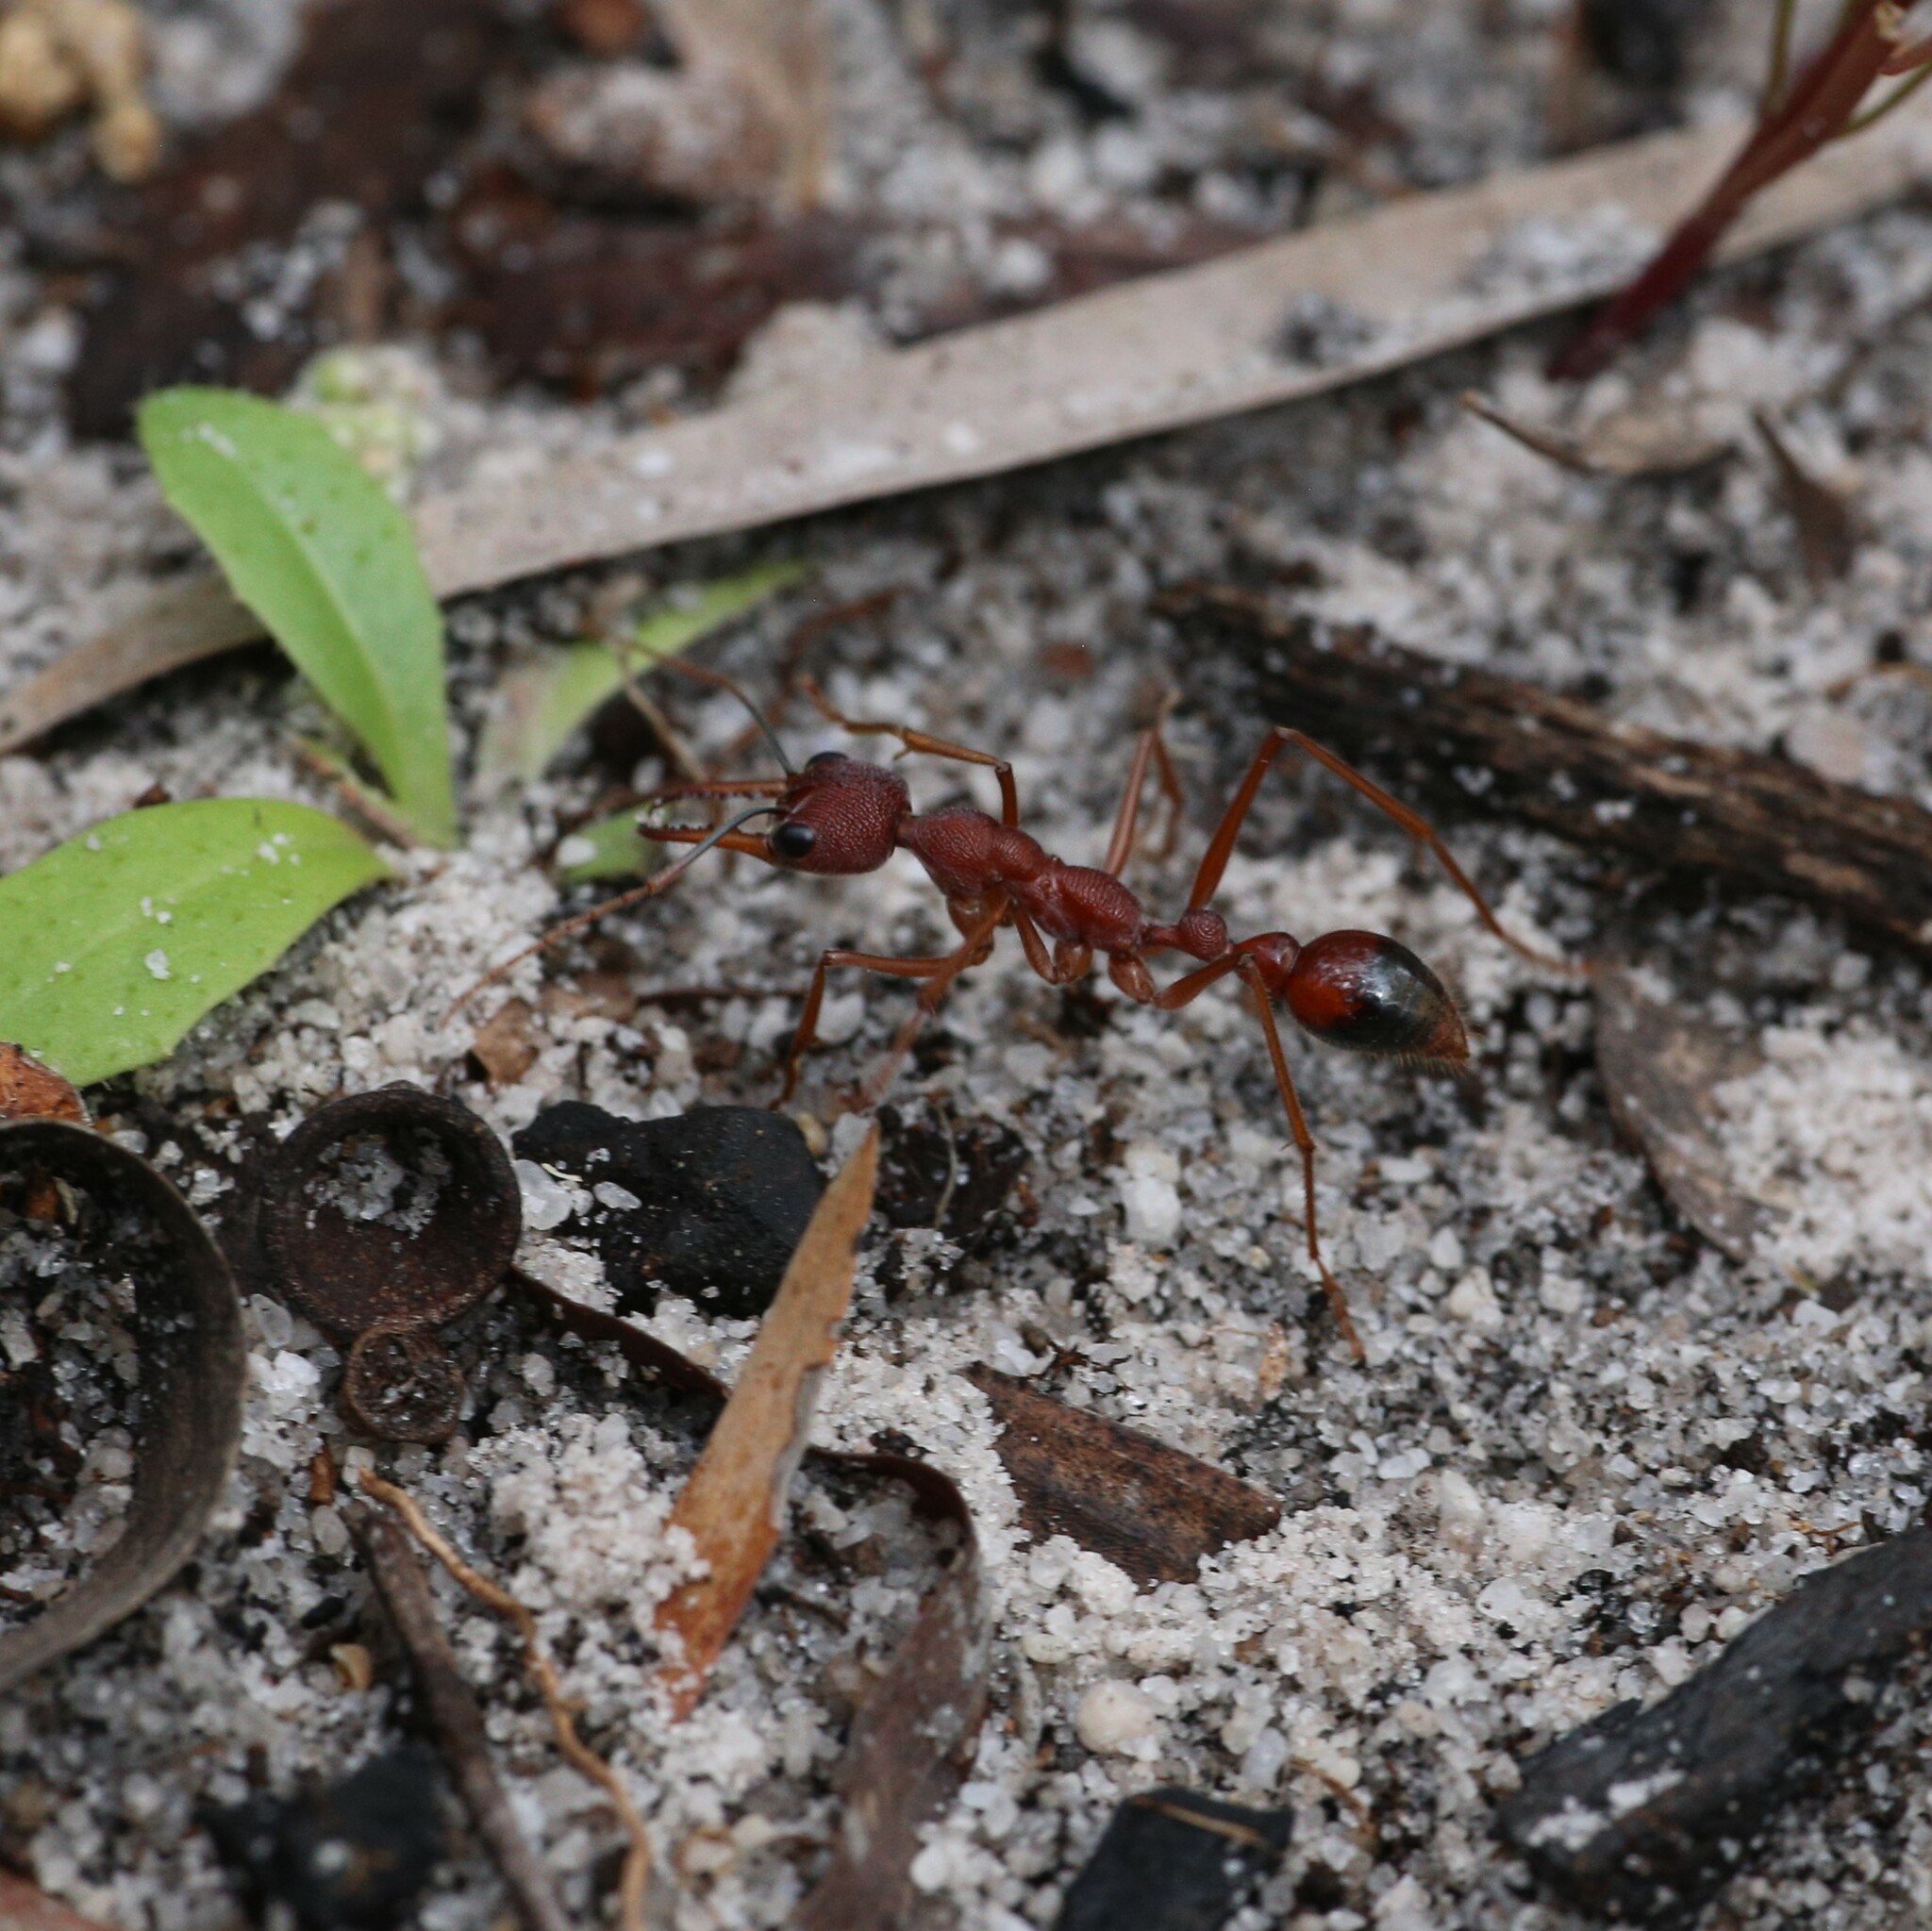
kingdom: Animalia
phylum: Arthropoda
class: Insecta
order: Hymenoptera
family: Formicidae
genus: Myrmecia
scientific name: Myrmecia nigriscapa
